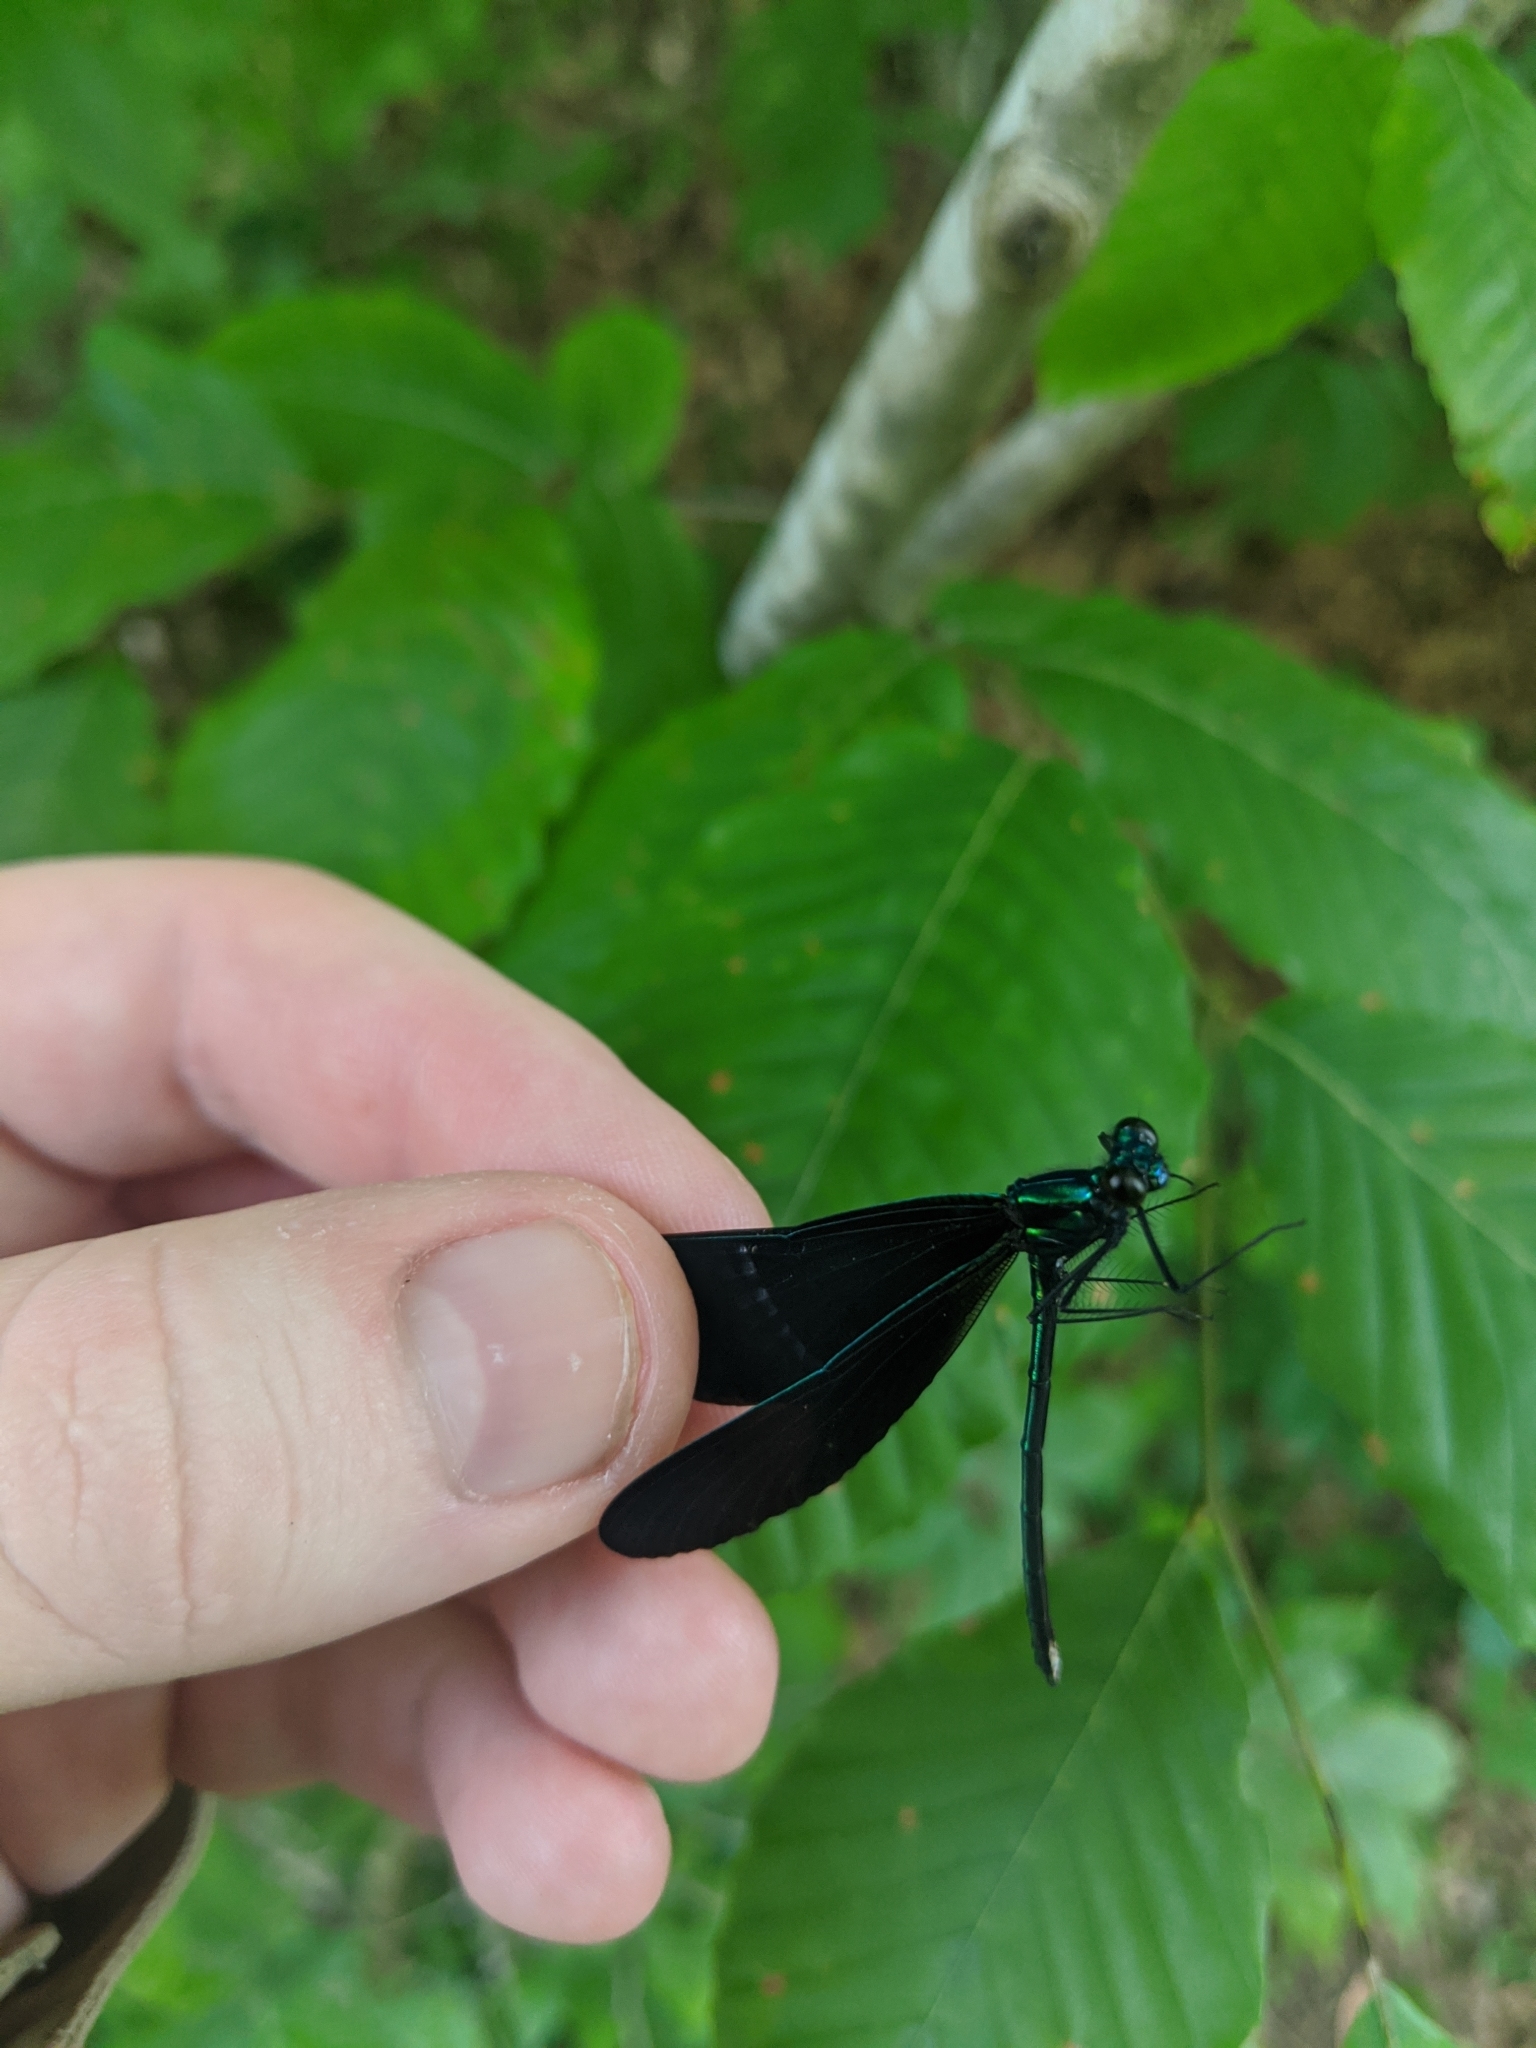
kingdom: Animalia
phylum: Arthropoda
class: Insecta
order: Odonata
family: Calopterygidae
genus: Calopteryx
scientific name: Calopteryx maculata
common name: Ebony jewelwing
